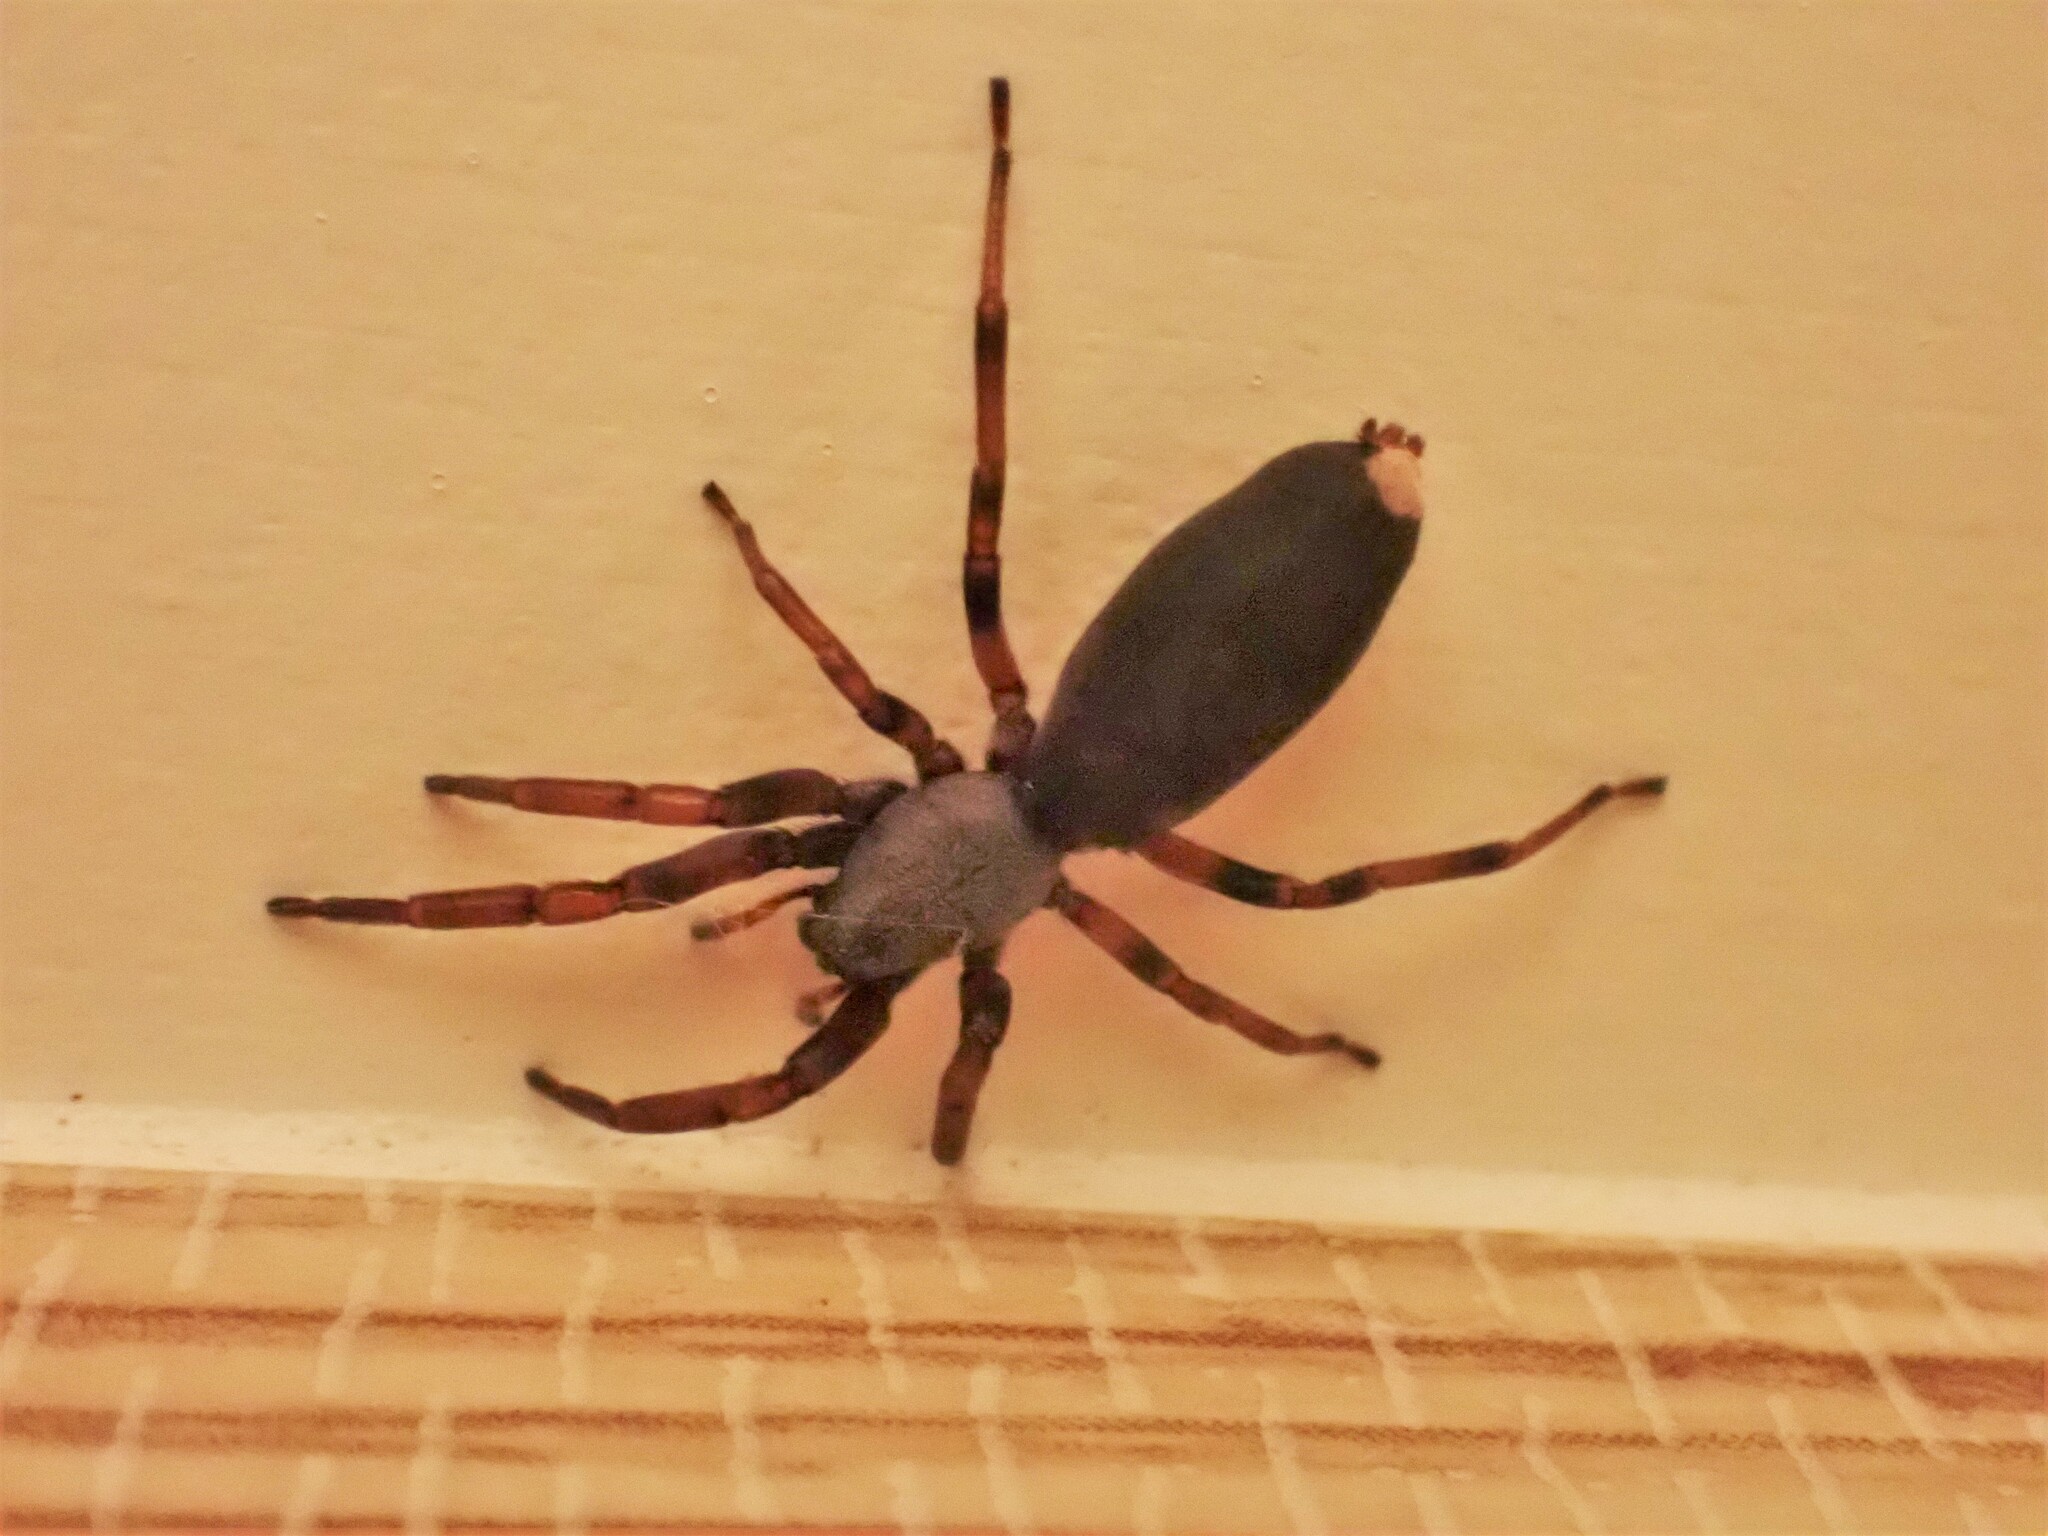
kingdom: Animalia
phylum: Arthropoda
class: Arachnida
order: Araneae
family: Lamponidae
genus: Lampona
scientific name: Lampona murina
